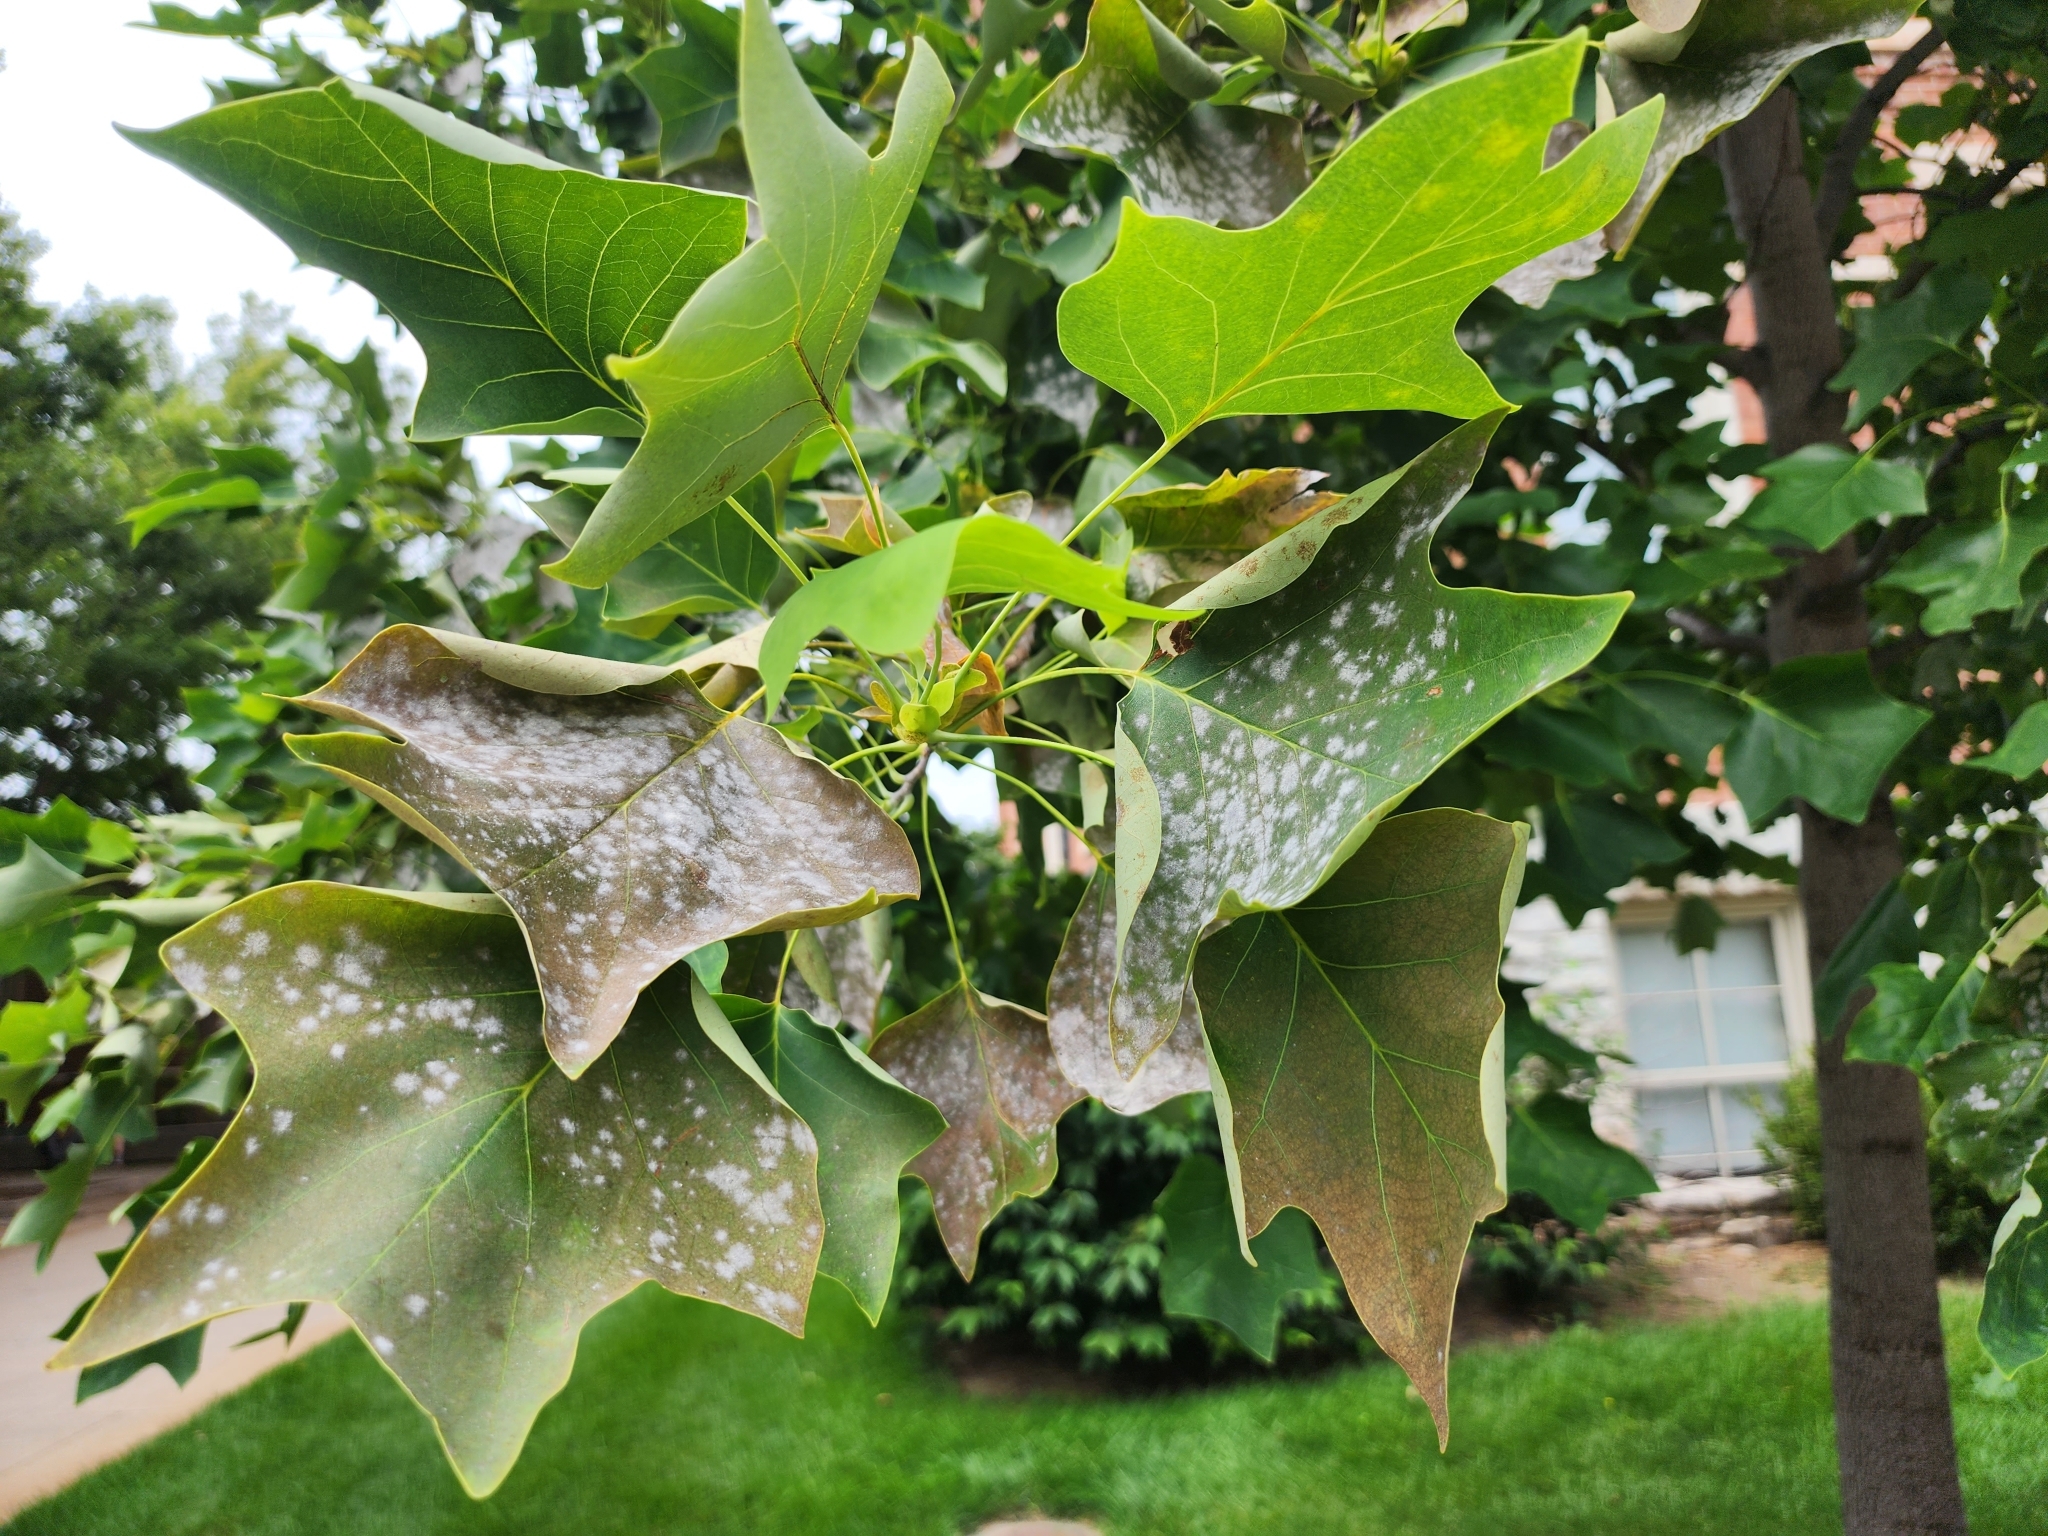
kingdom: Fungi
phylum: Ascomycota
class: Leotiomycetes
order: Helotiales
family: Erysiphaceae
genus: Erysiphe
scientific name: Erysiphe liriodendri
